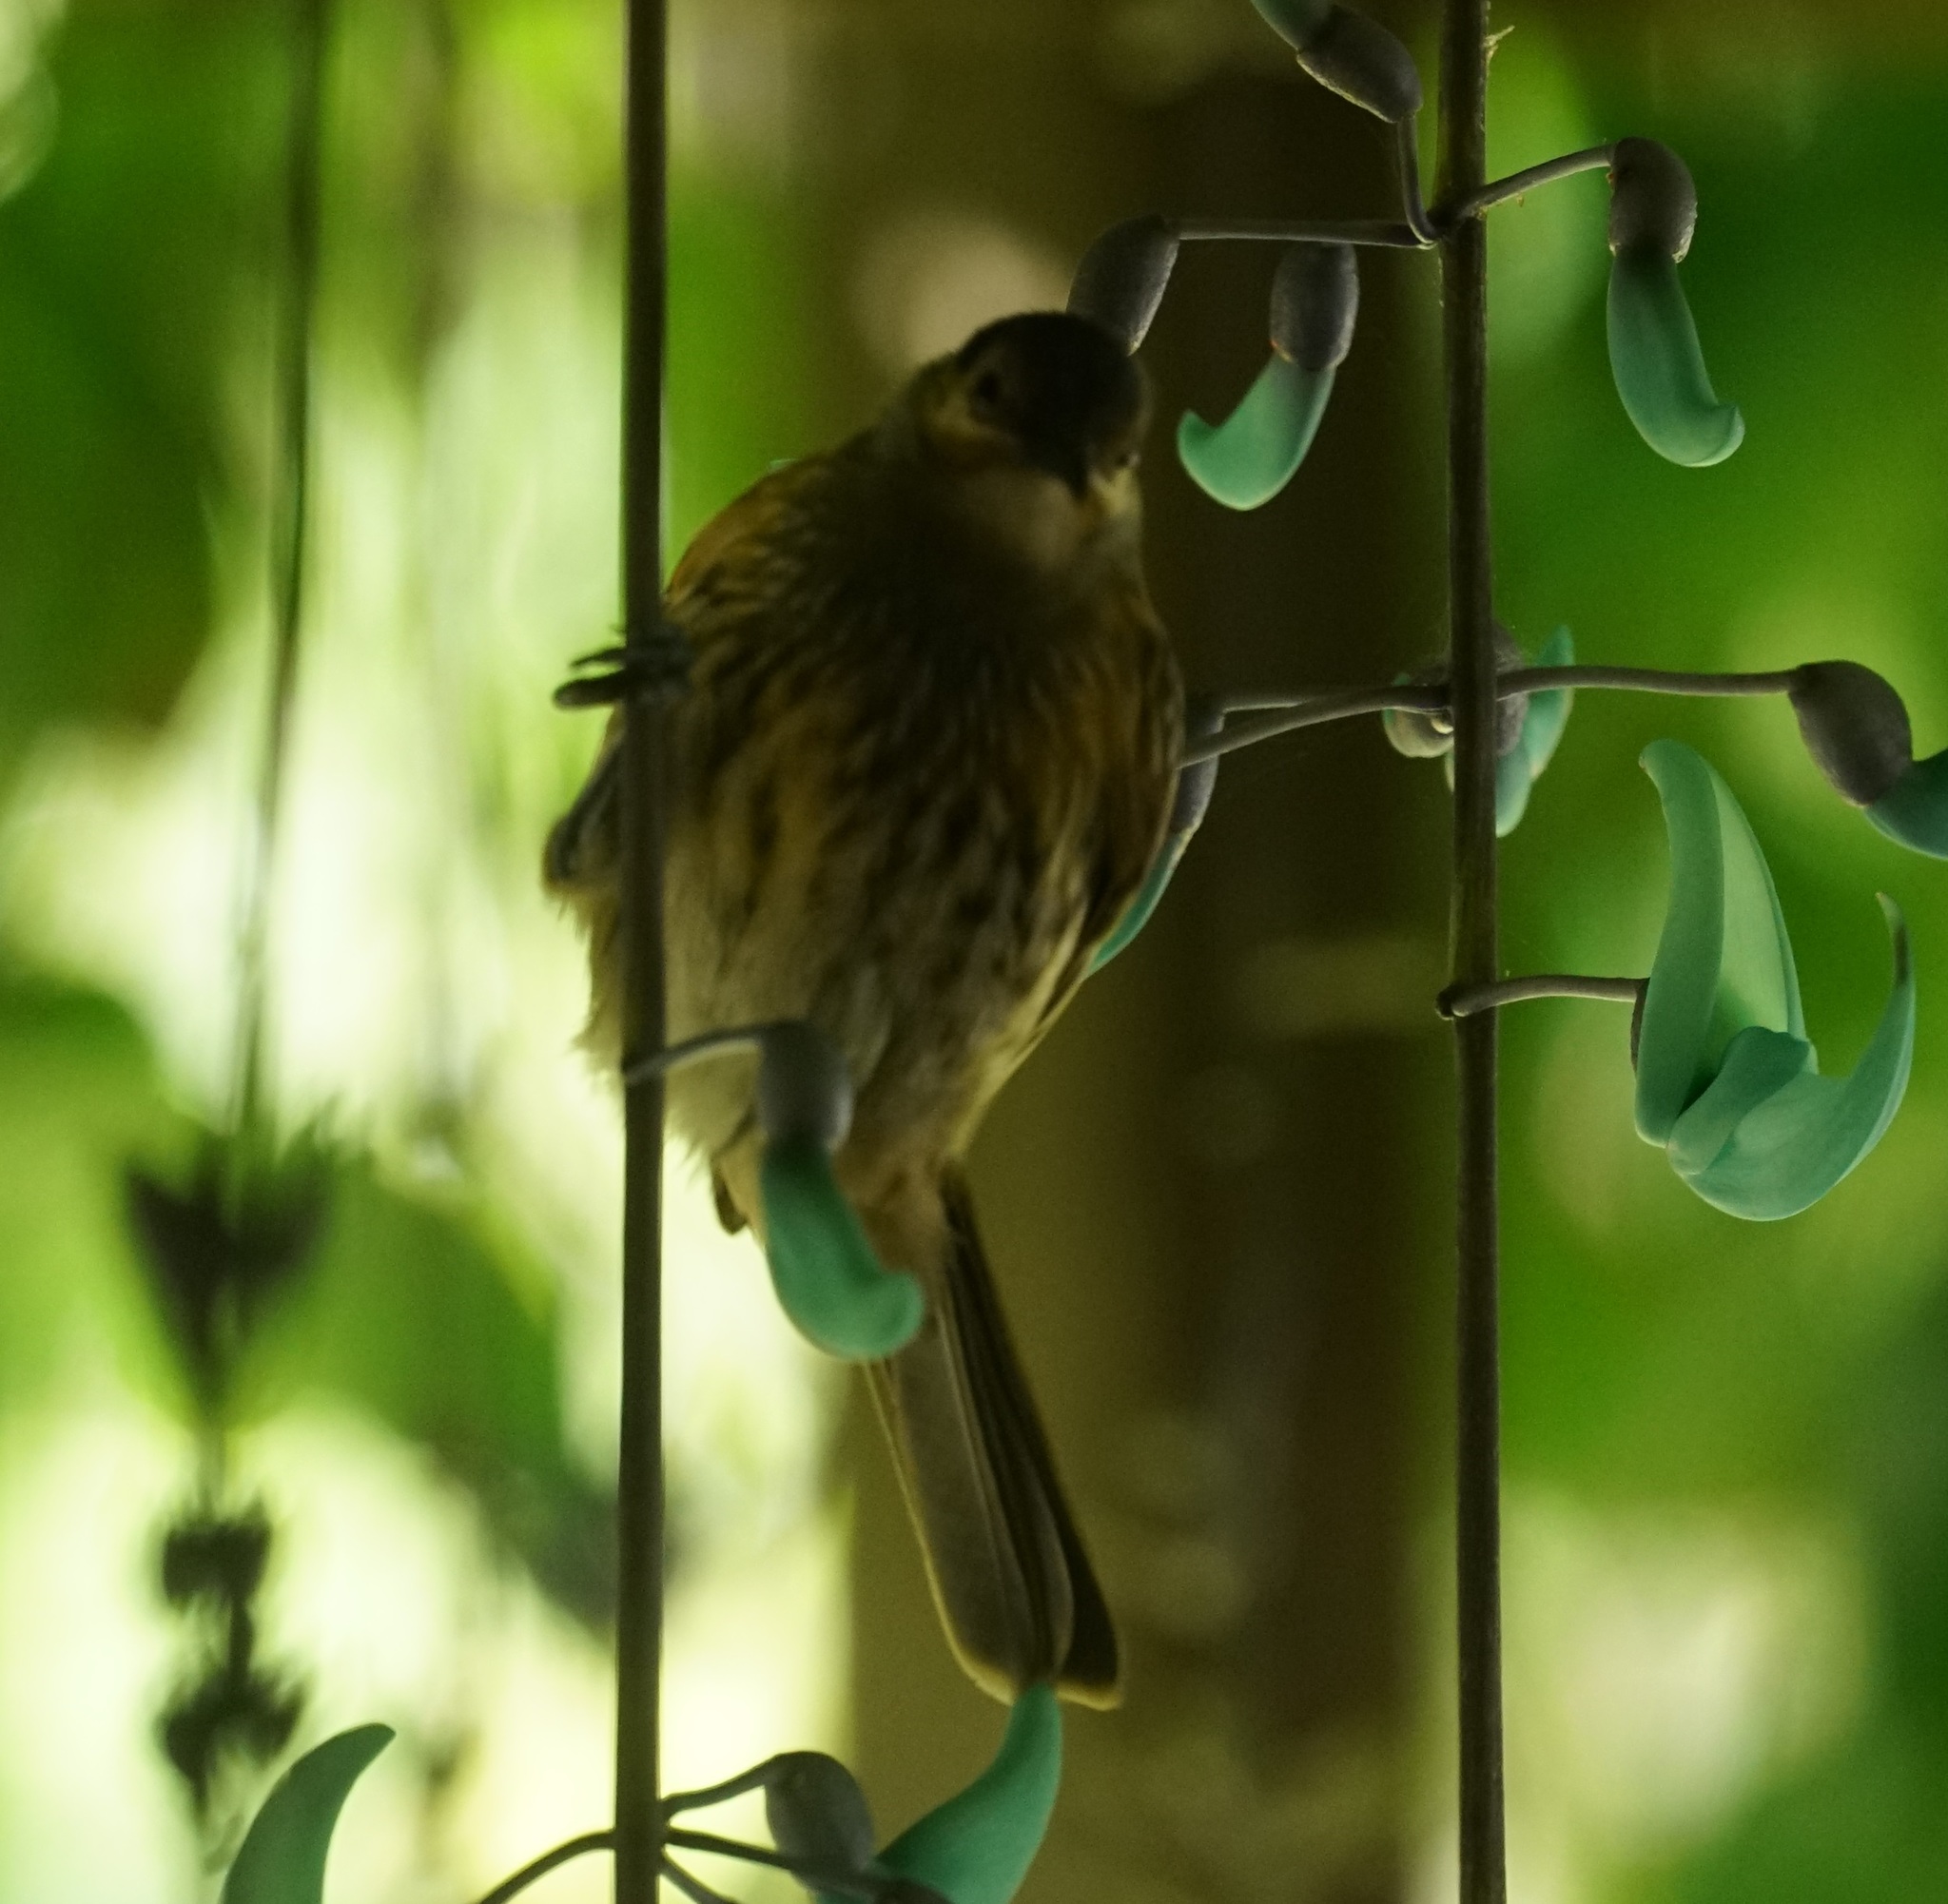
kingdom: Animalia
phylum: Chordata
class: Aves
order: Passeriformes
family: Meliphagidae
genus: Xanthotis
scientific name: Xanthotis macleayanus
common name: Macleay's honeyeater
